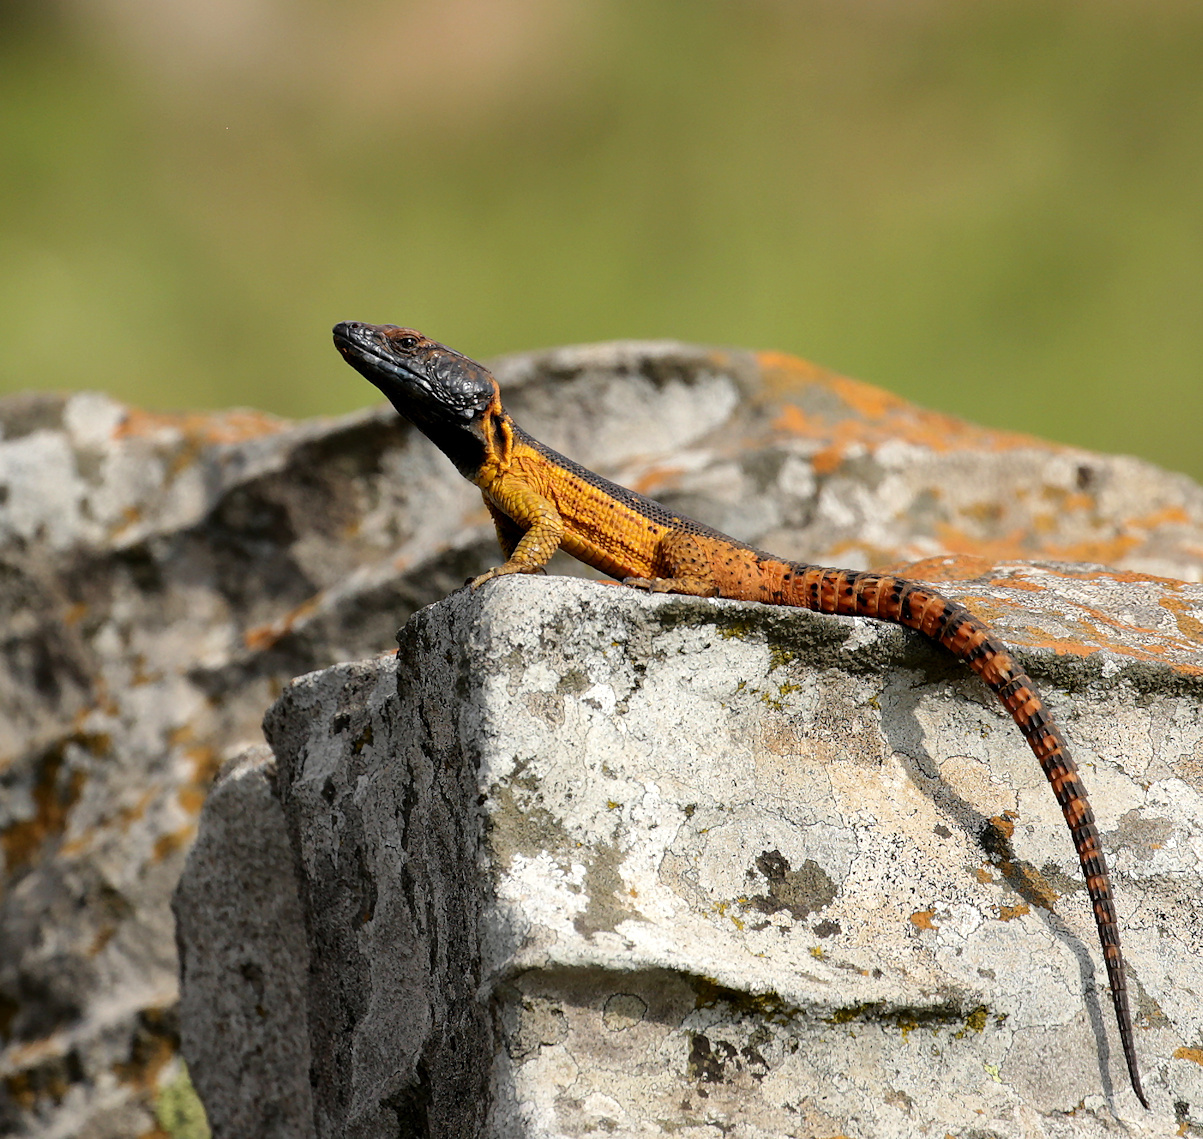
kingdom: Animalia
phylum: Chordata
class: Squamata
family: Cordylidae
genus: Pseudocordylus
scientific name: Pseudocordylus melanotus
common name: Highveld crag lizard
